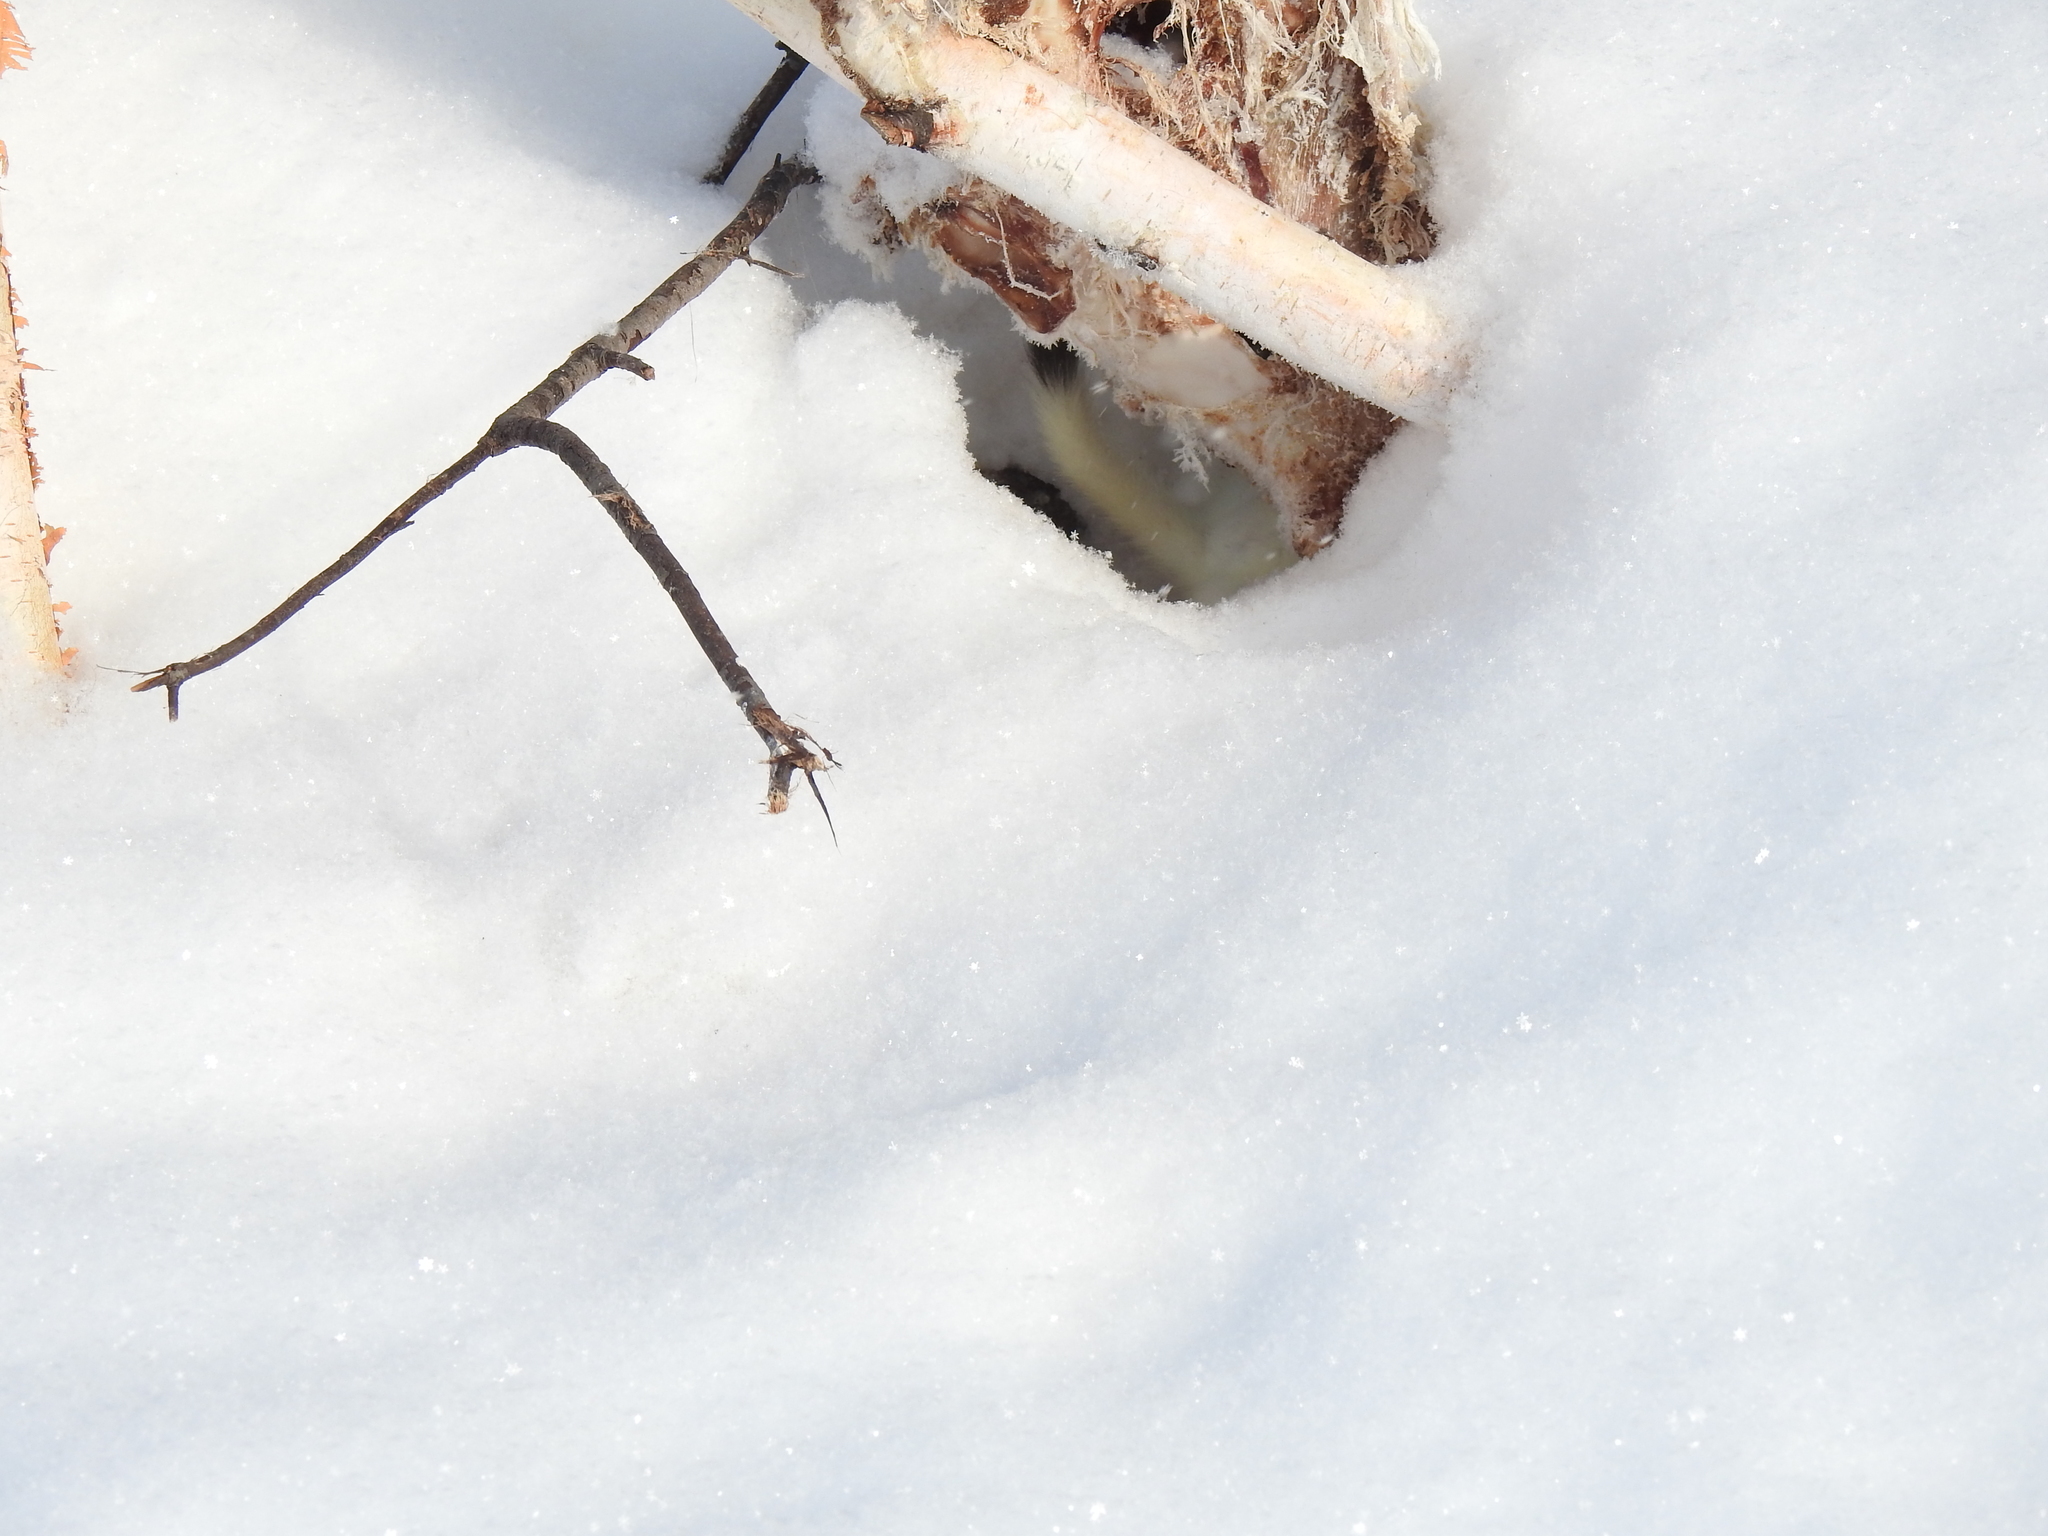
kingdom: Animalia
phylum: Chordata
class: Mammalia
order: Carnivora
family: Mustelidae
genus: Mustela
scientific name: Mustela erminea
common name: Stoat
